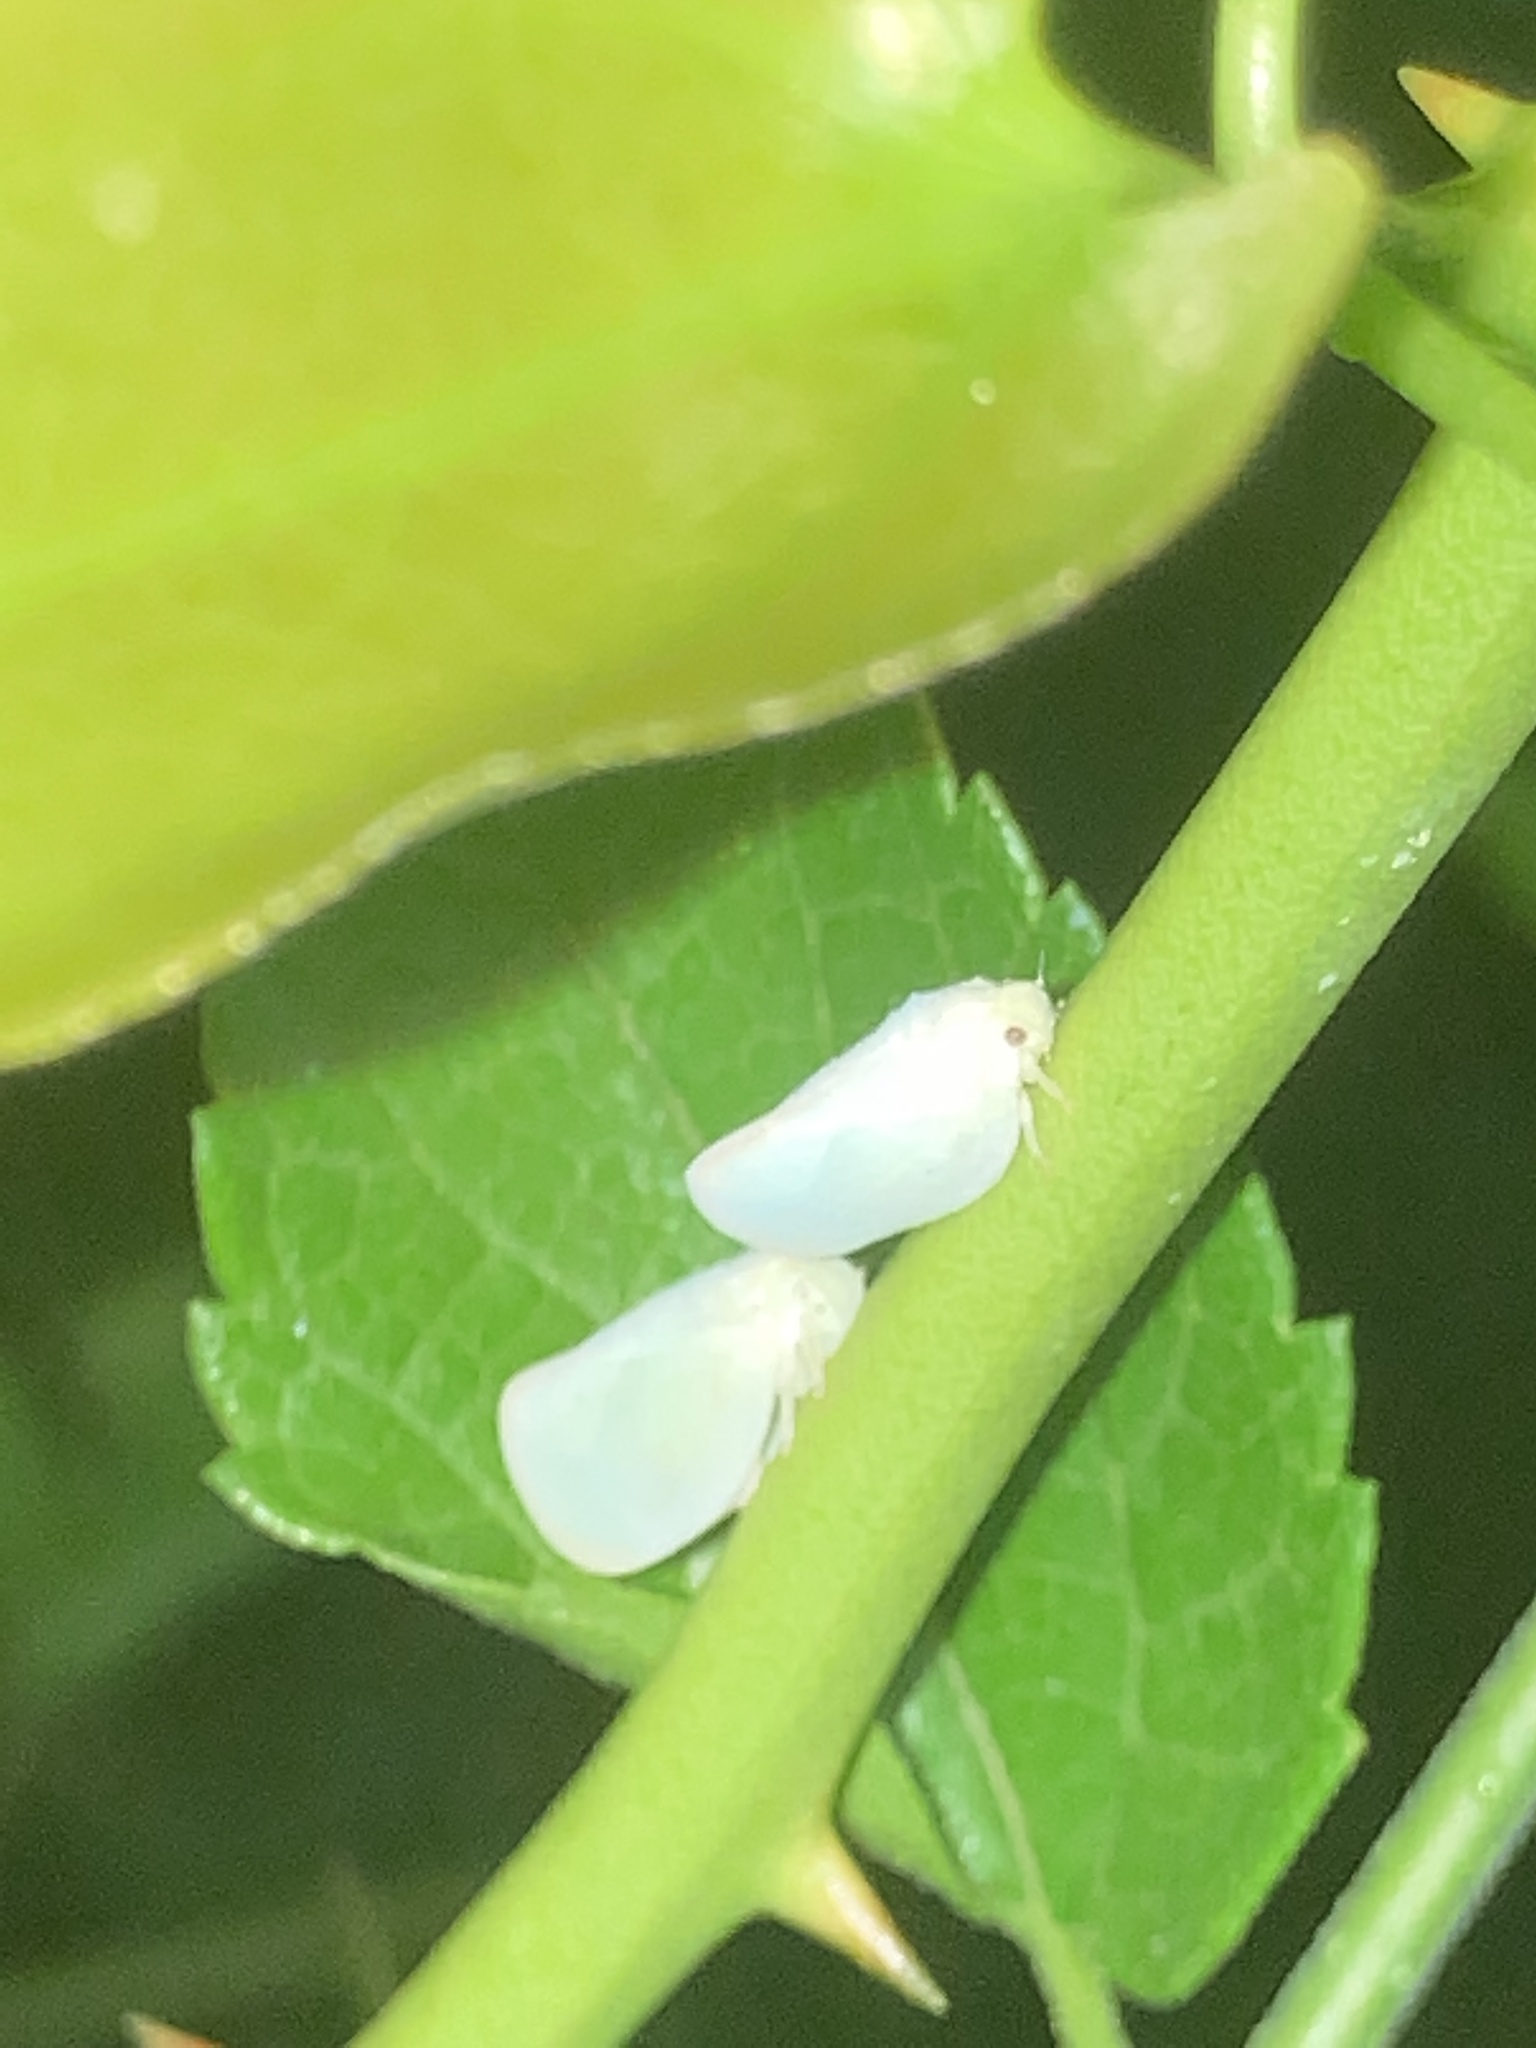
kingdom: Animalia
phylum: Arthropoda
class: Insecta
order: Hemiptera
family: Flatidae
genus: Ormenoides
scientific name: Ormenoides venusta
